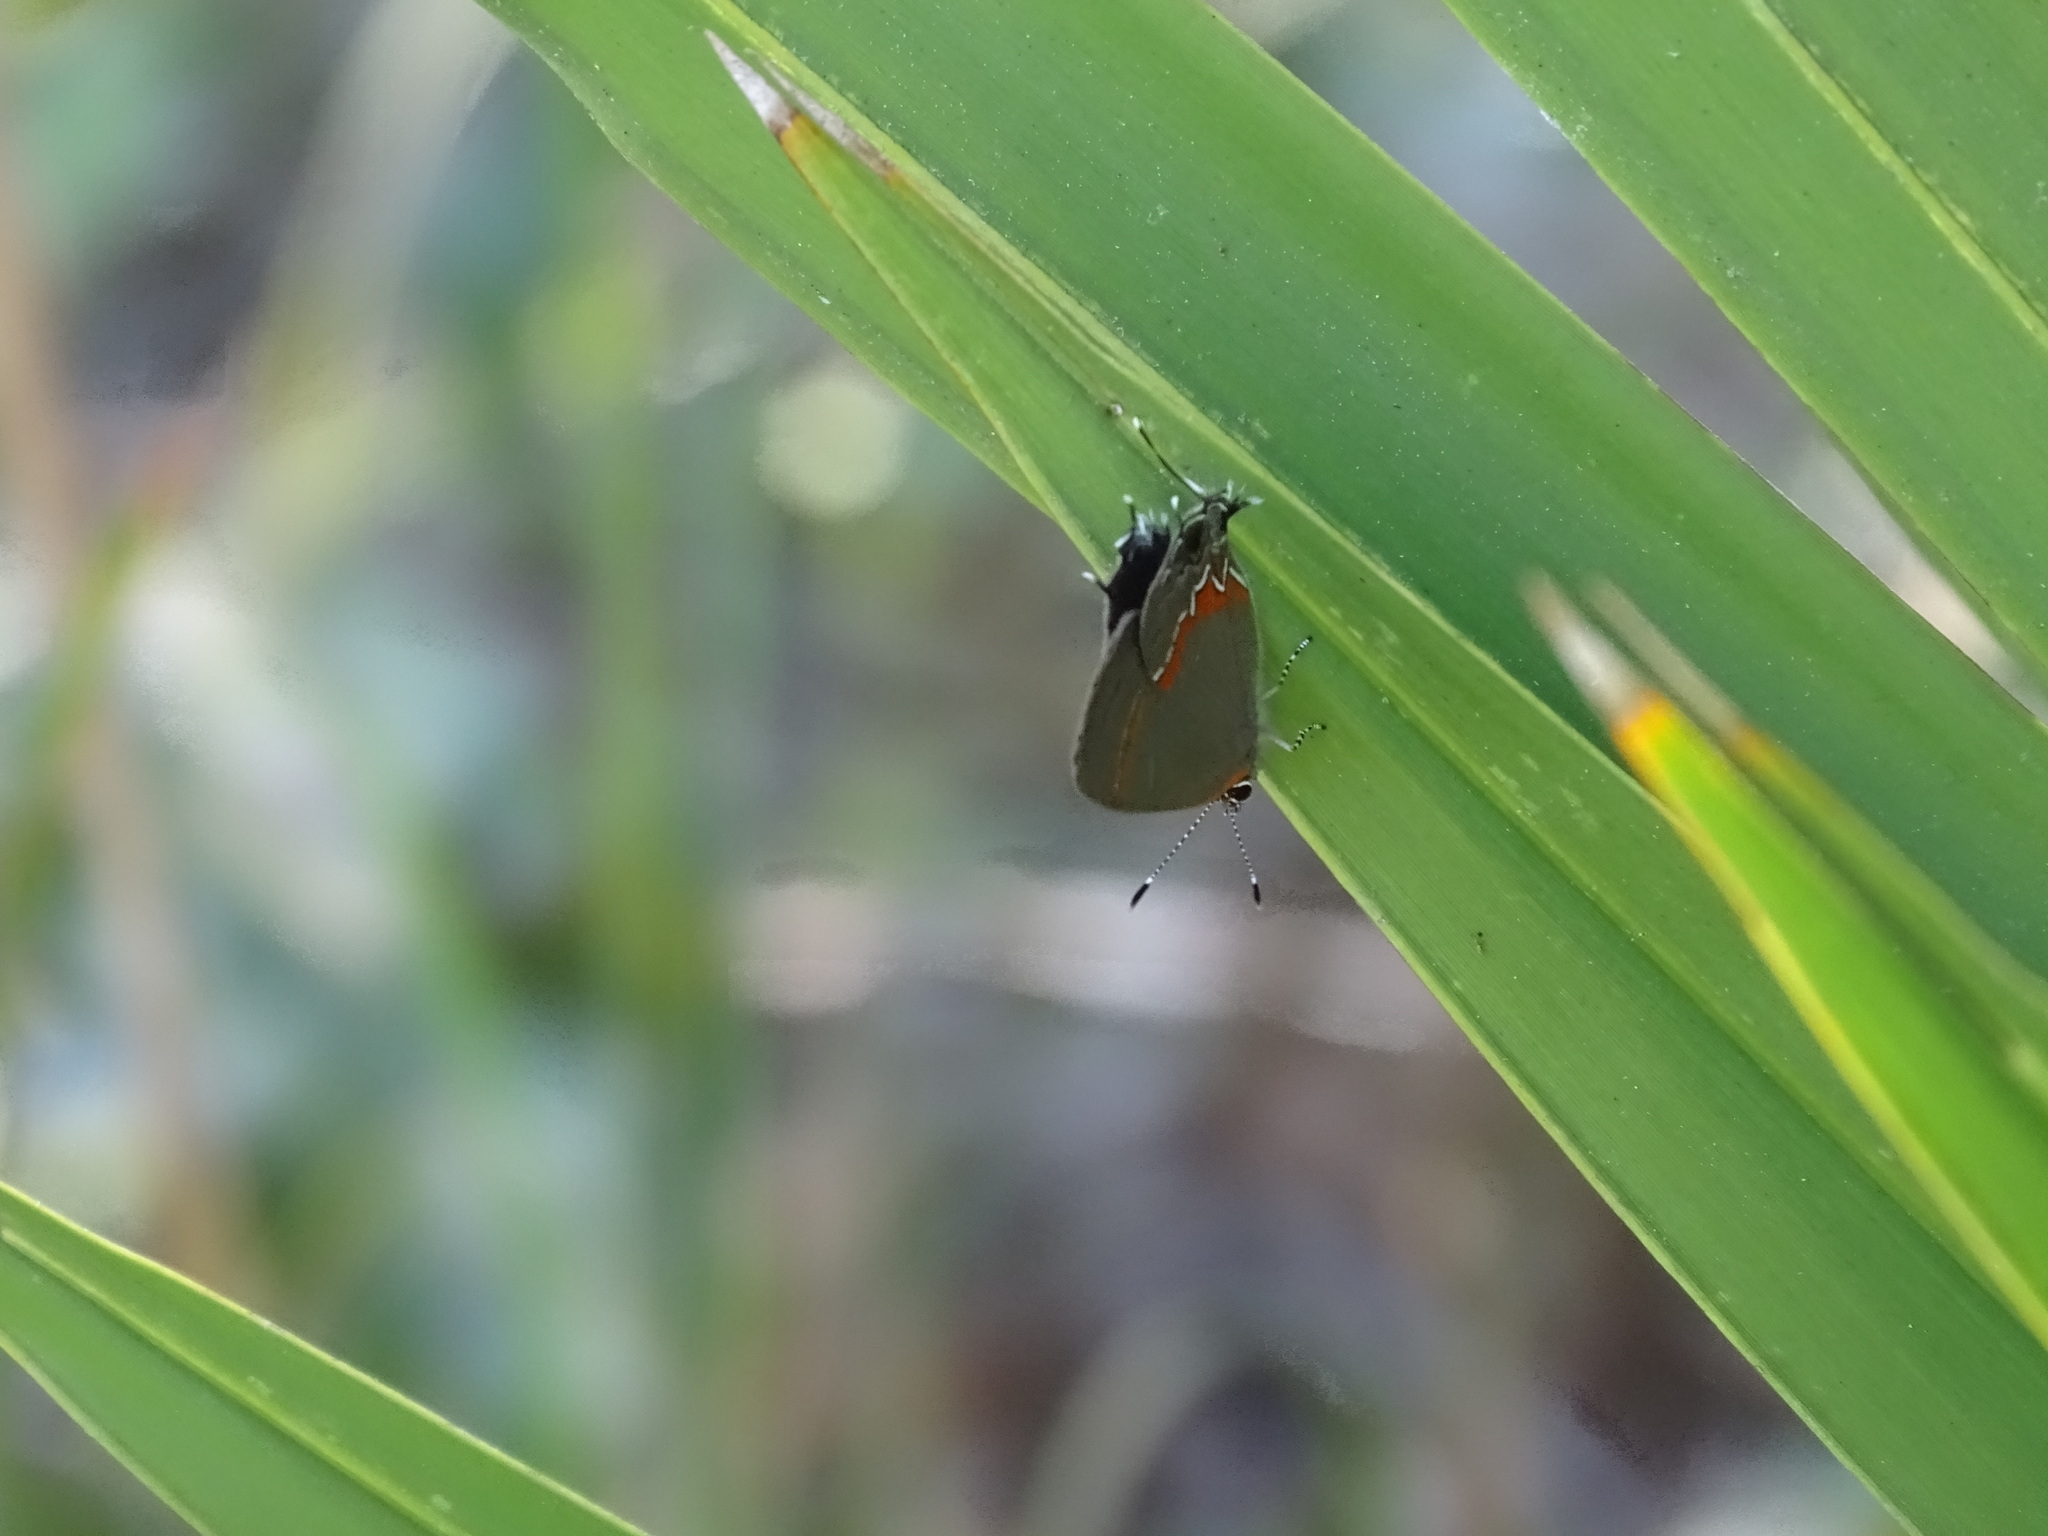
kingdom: Animalia
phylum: Arthropoda
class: Insecta
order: Lepidoptera
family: Lycaenidae
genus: Calycopis
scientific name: Calycopis cecrops
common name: Red-banded hairstreak
